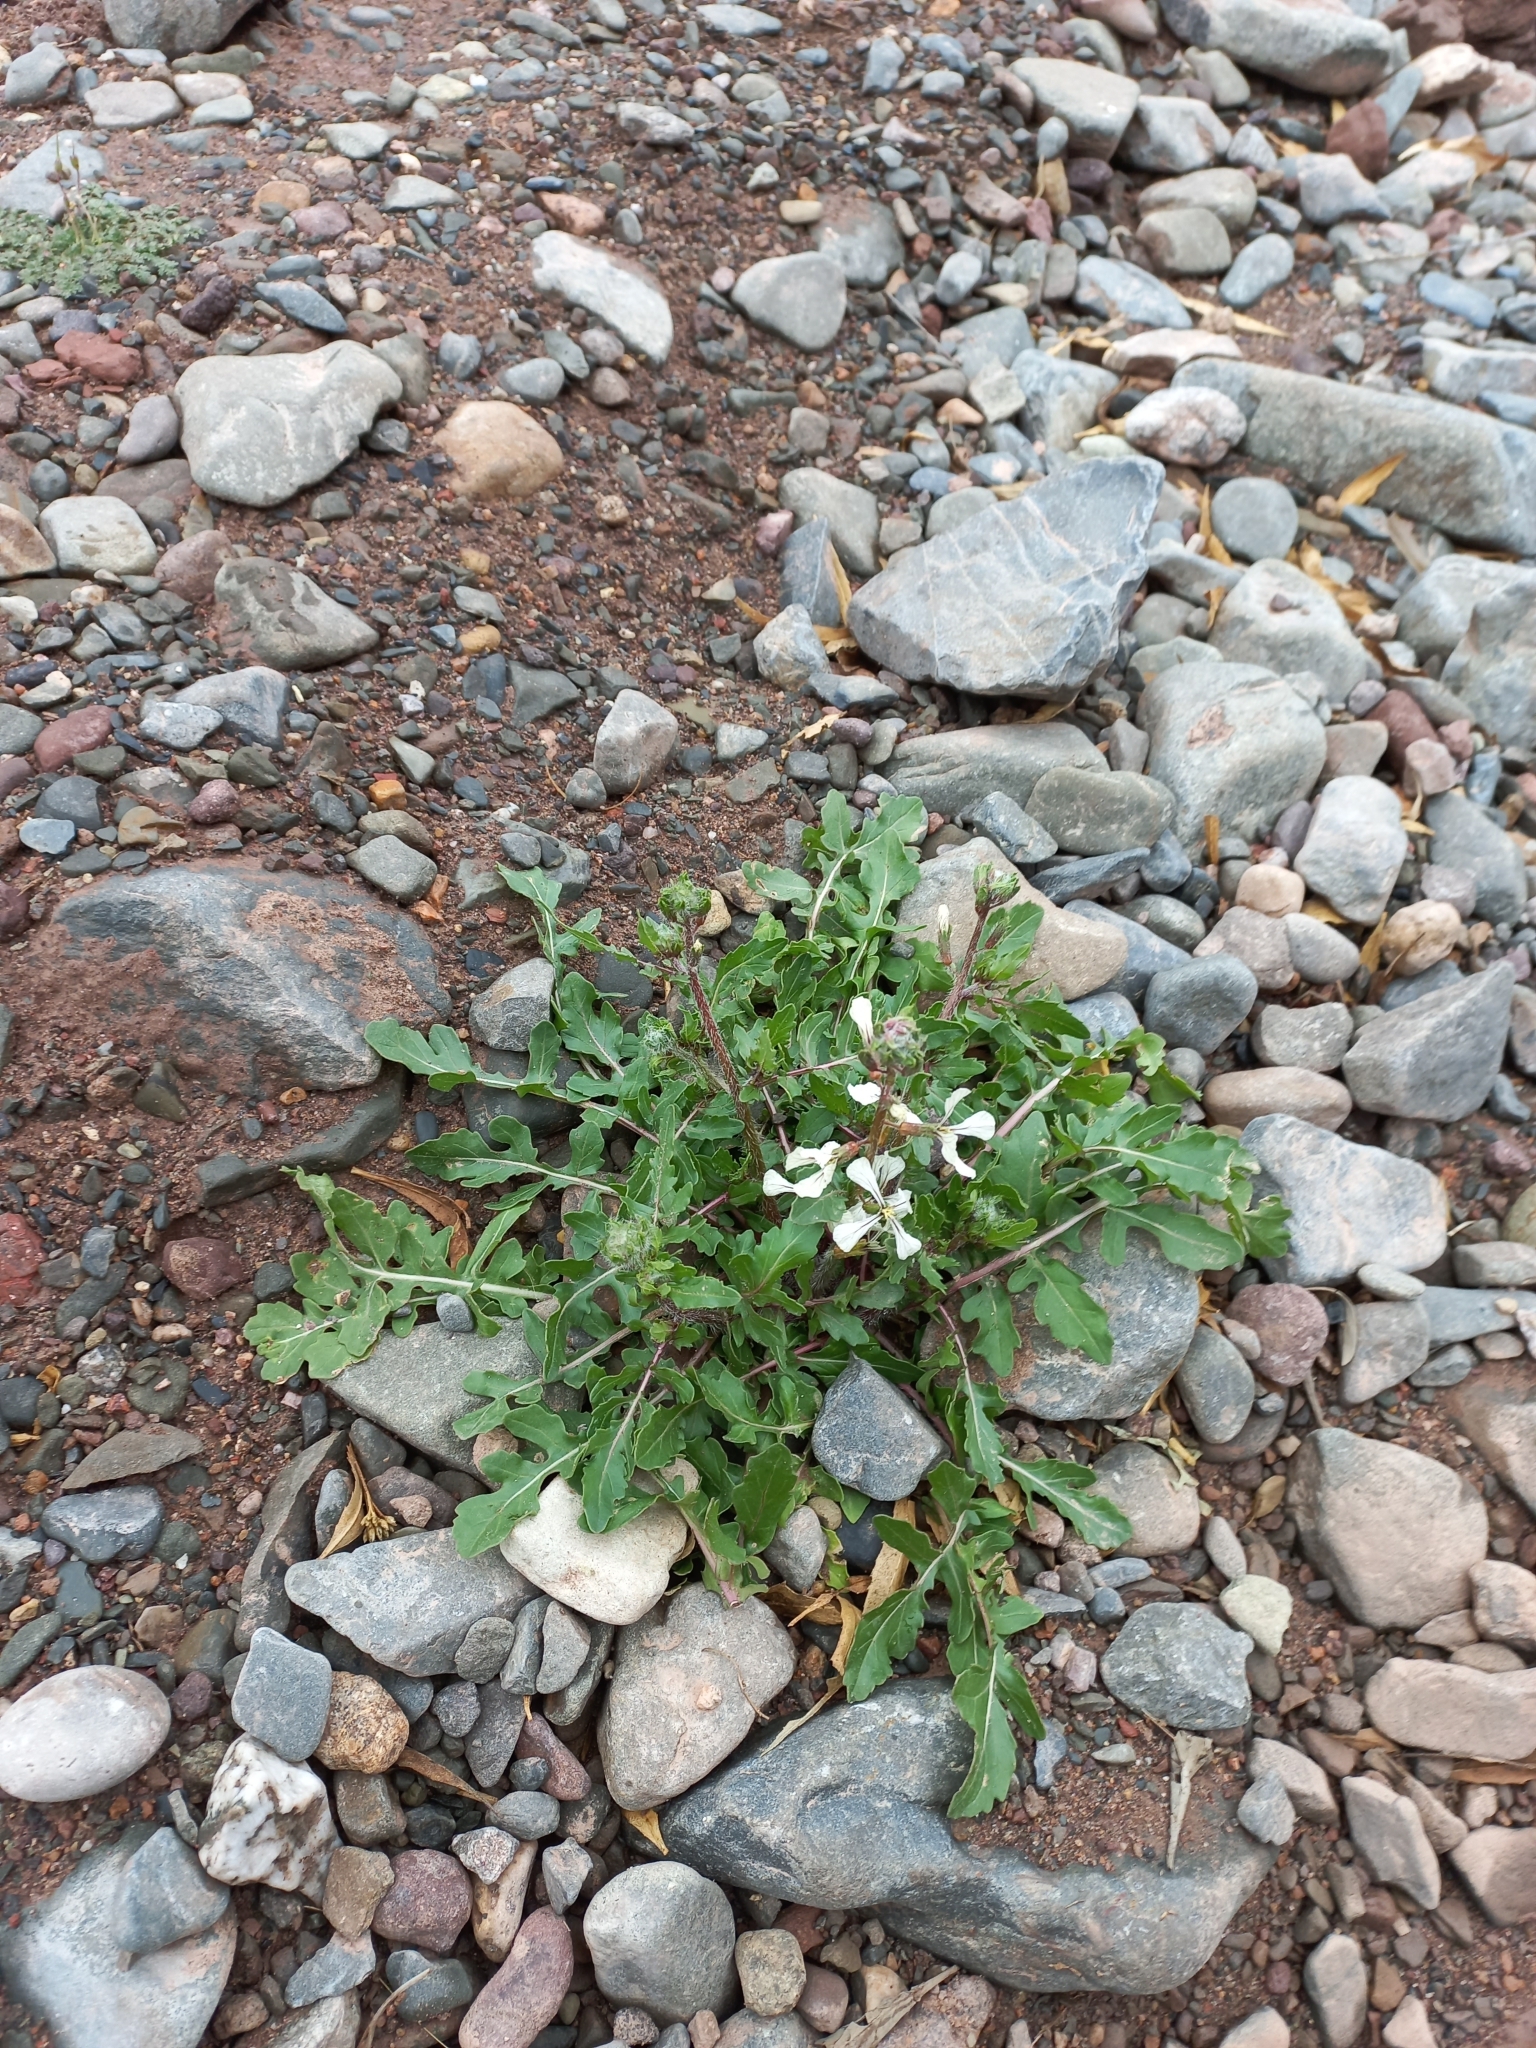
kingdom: Plantae
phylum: Tracheophyta
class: Magnoliopsida
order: Brassicales
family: Brassicaceae
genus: Eruca
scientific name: Eruca vesicaria
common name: Garden rocket
